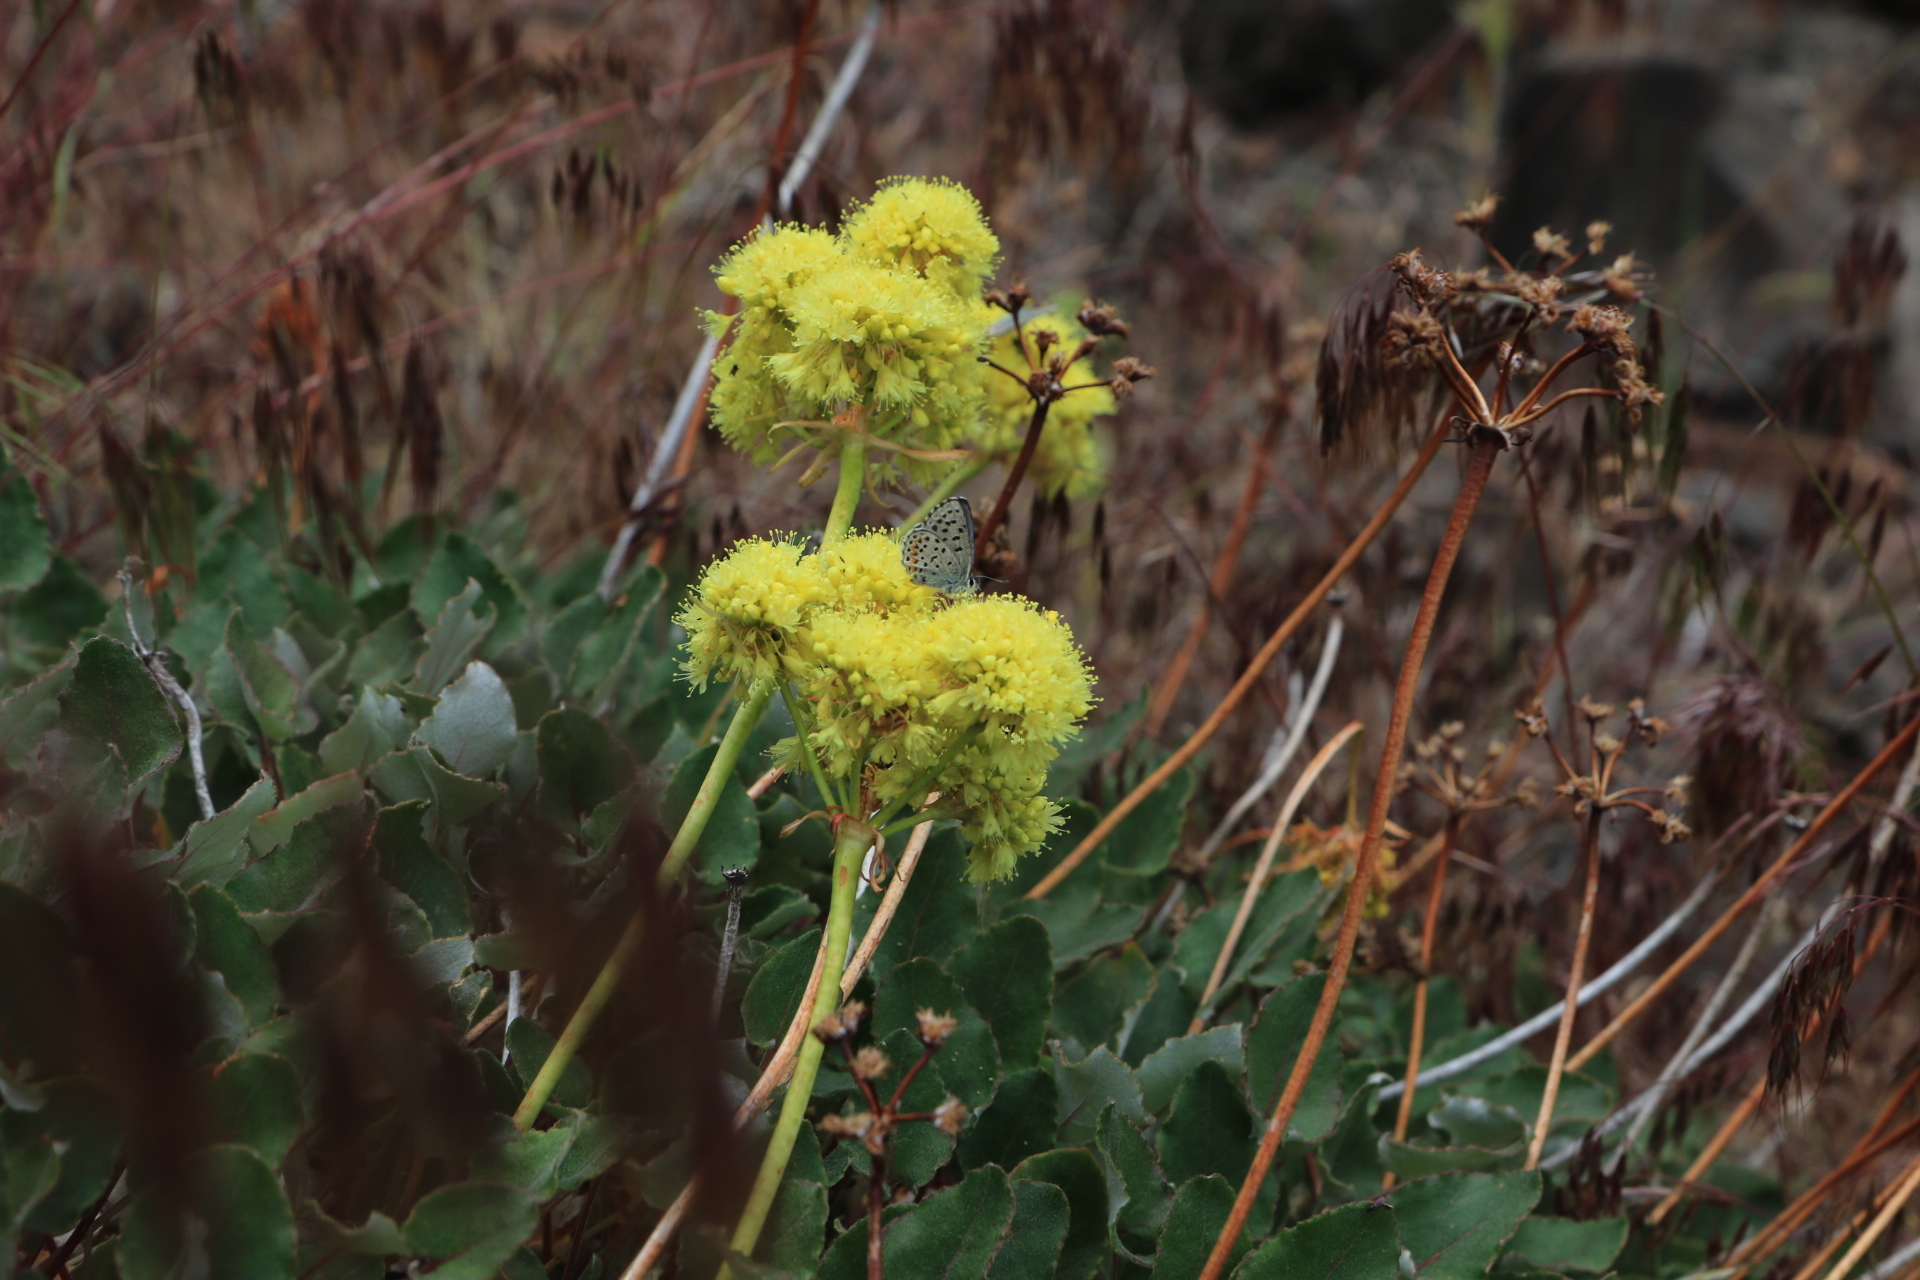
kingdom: Animalia
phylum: Arthropoda
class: Insecta
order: Lepidoptera
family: Lycaenidae
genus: Euphilotes
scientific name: Euphilotes enoptes
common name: Dotted blue
